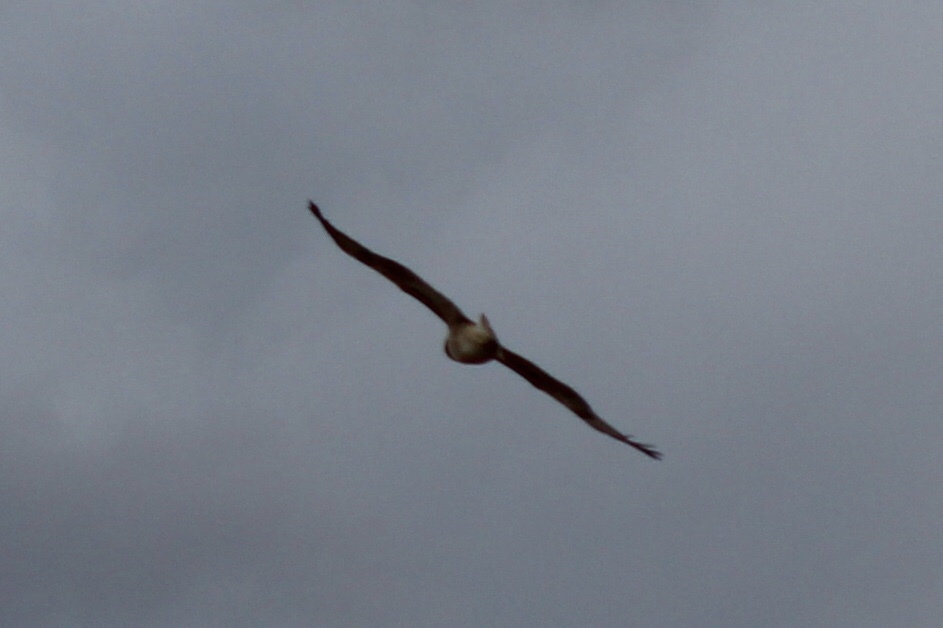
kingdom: Animalia
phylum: Chordata
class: Aves
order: Accipitriformes
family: Accipitridae
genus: Buteo
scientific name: Buteo jamaicensis
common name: Red-tailed hawk
